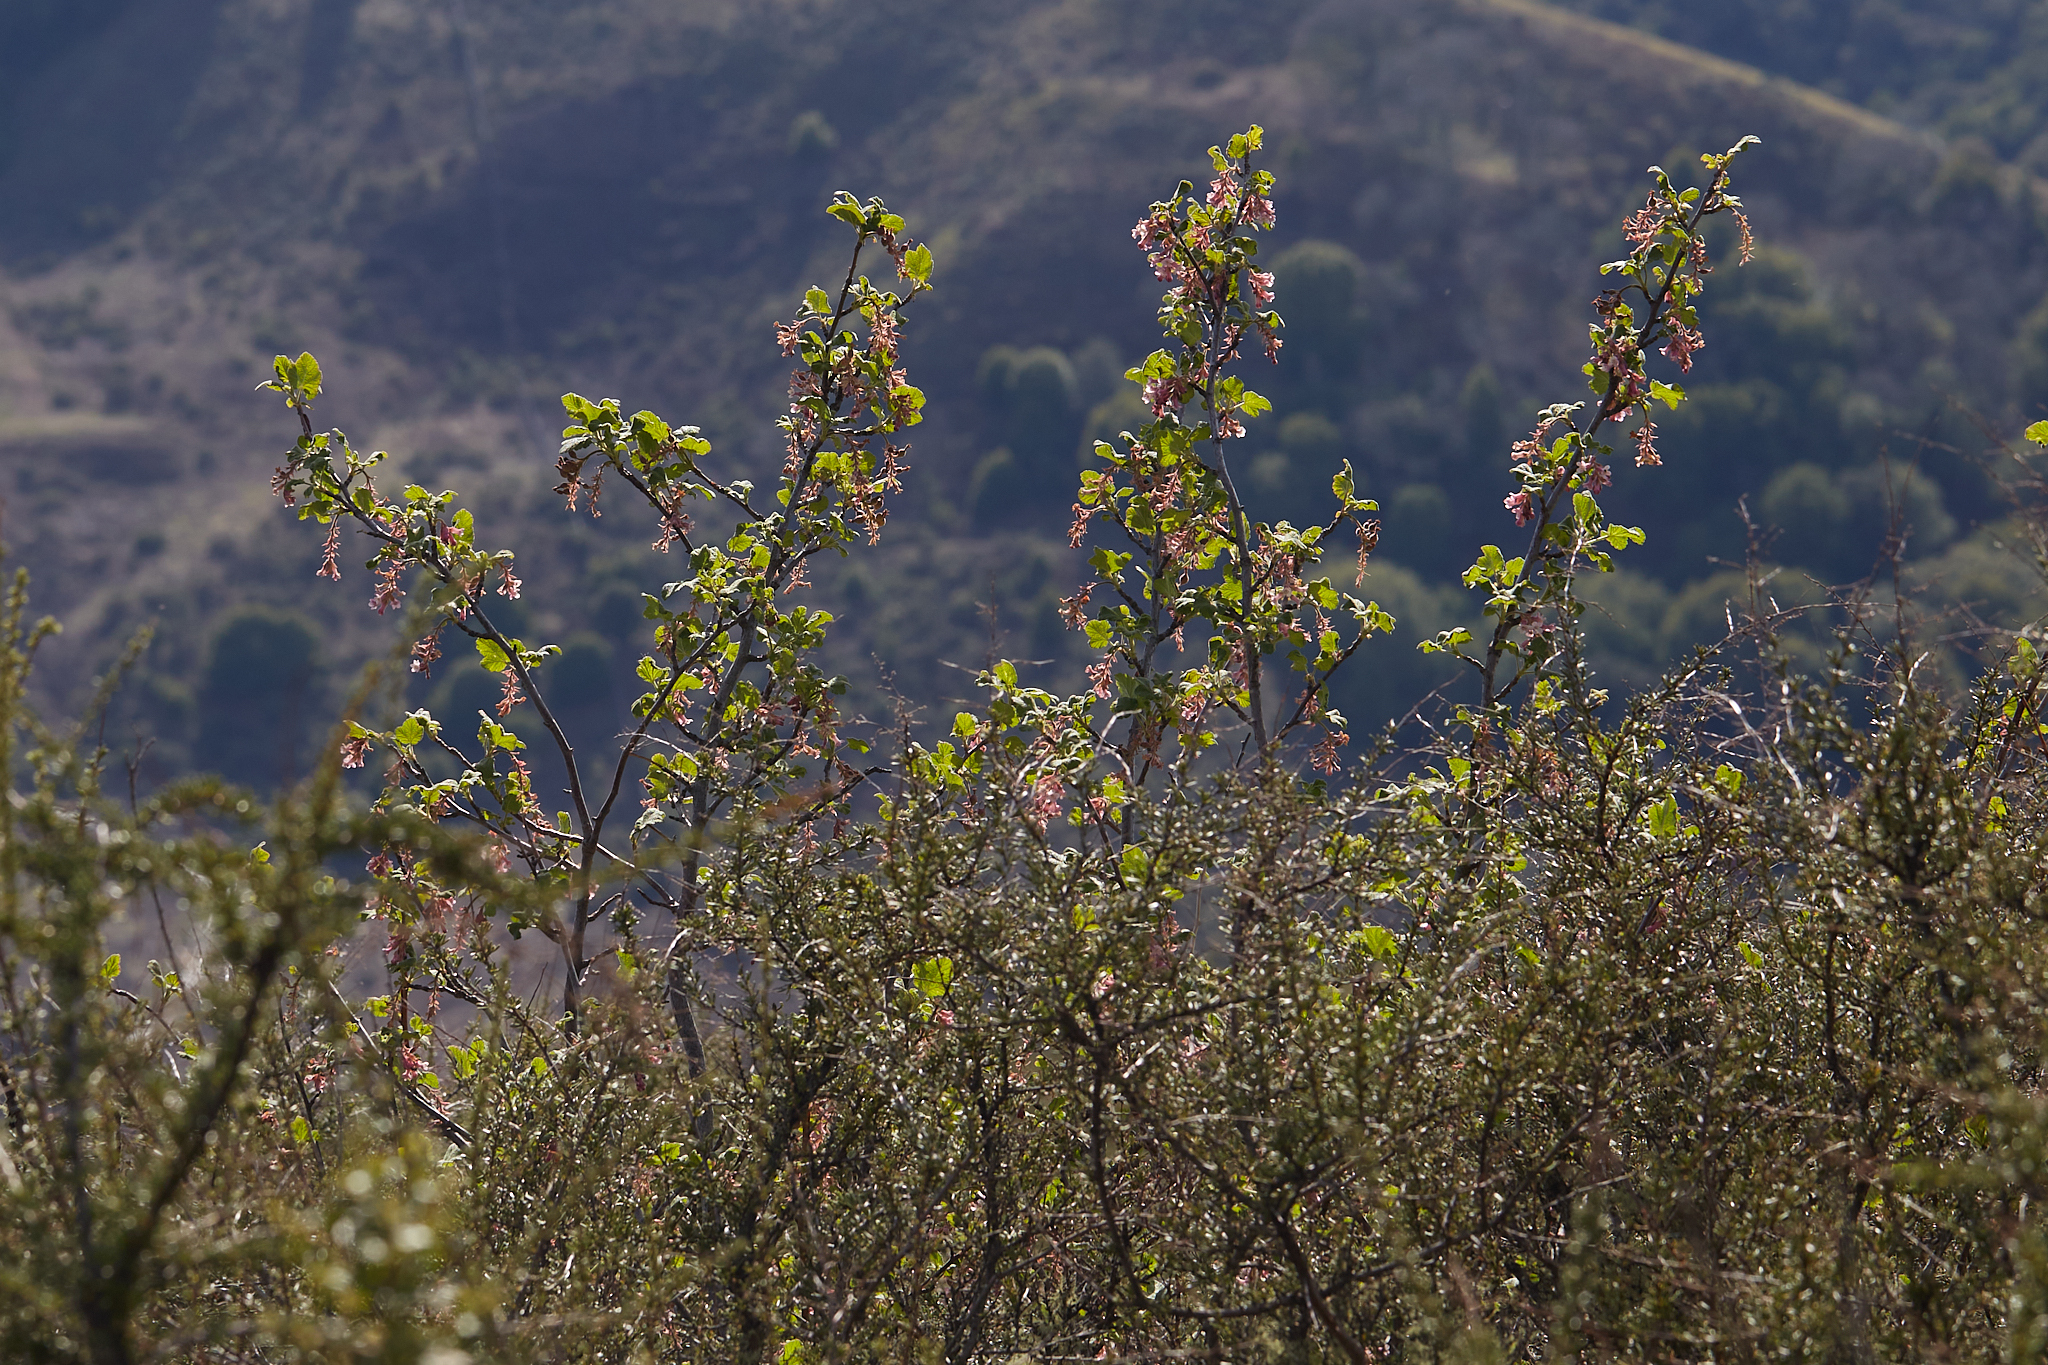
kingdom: Plantae
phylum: Tracheophyta
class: Magnoliopsida
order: Saxifragales
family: Grossulariaceae
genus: Ribes
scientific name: Ribes malvaceum
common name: Chaparral currant
